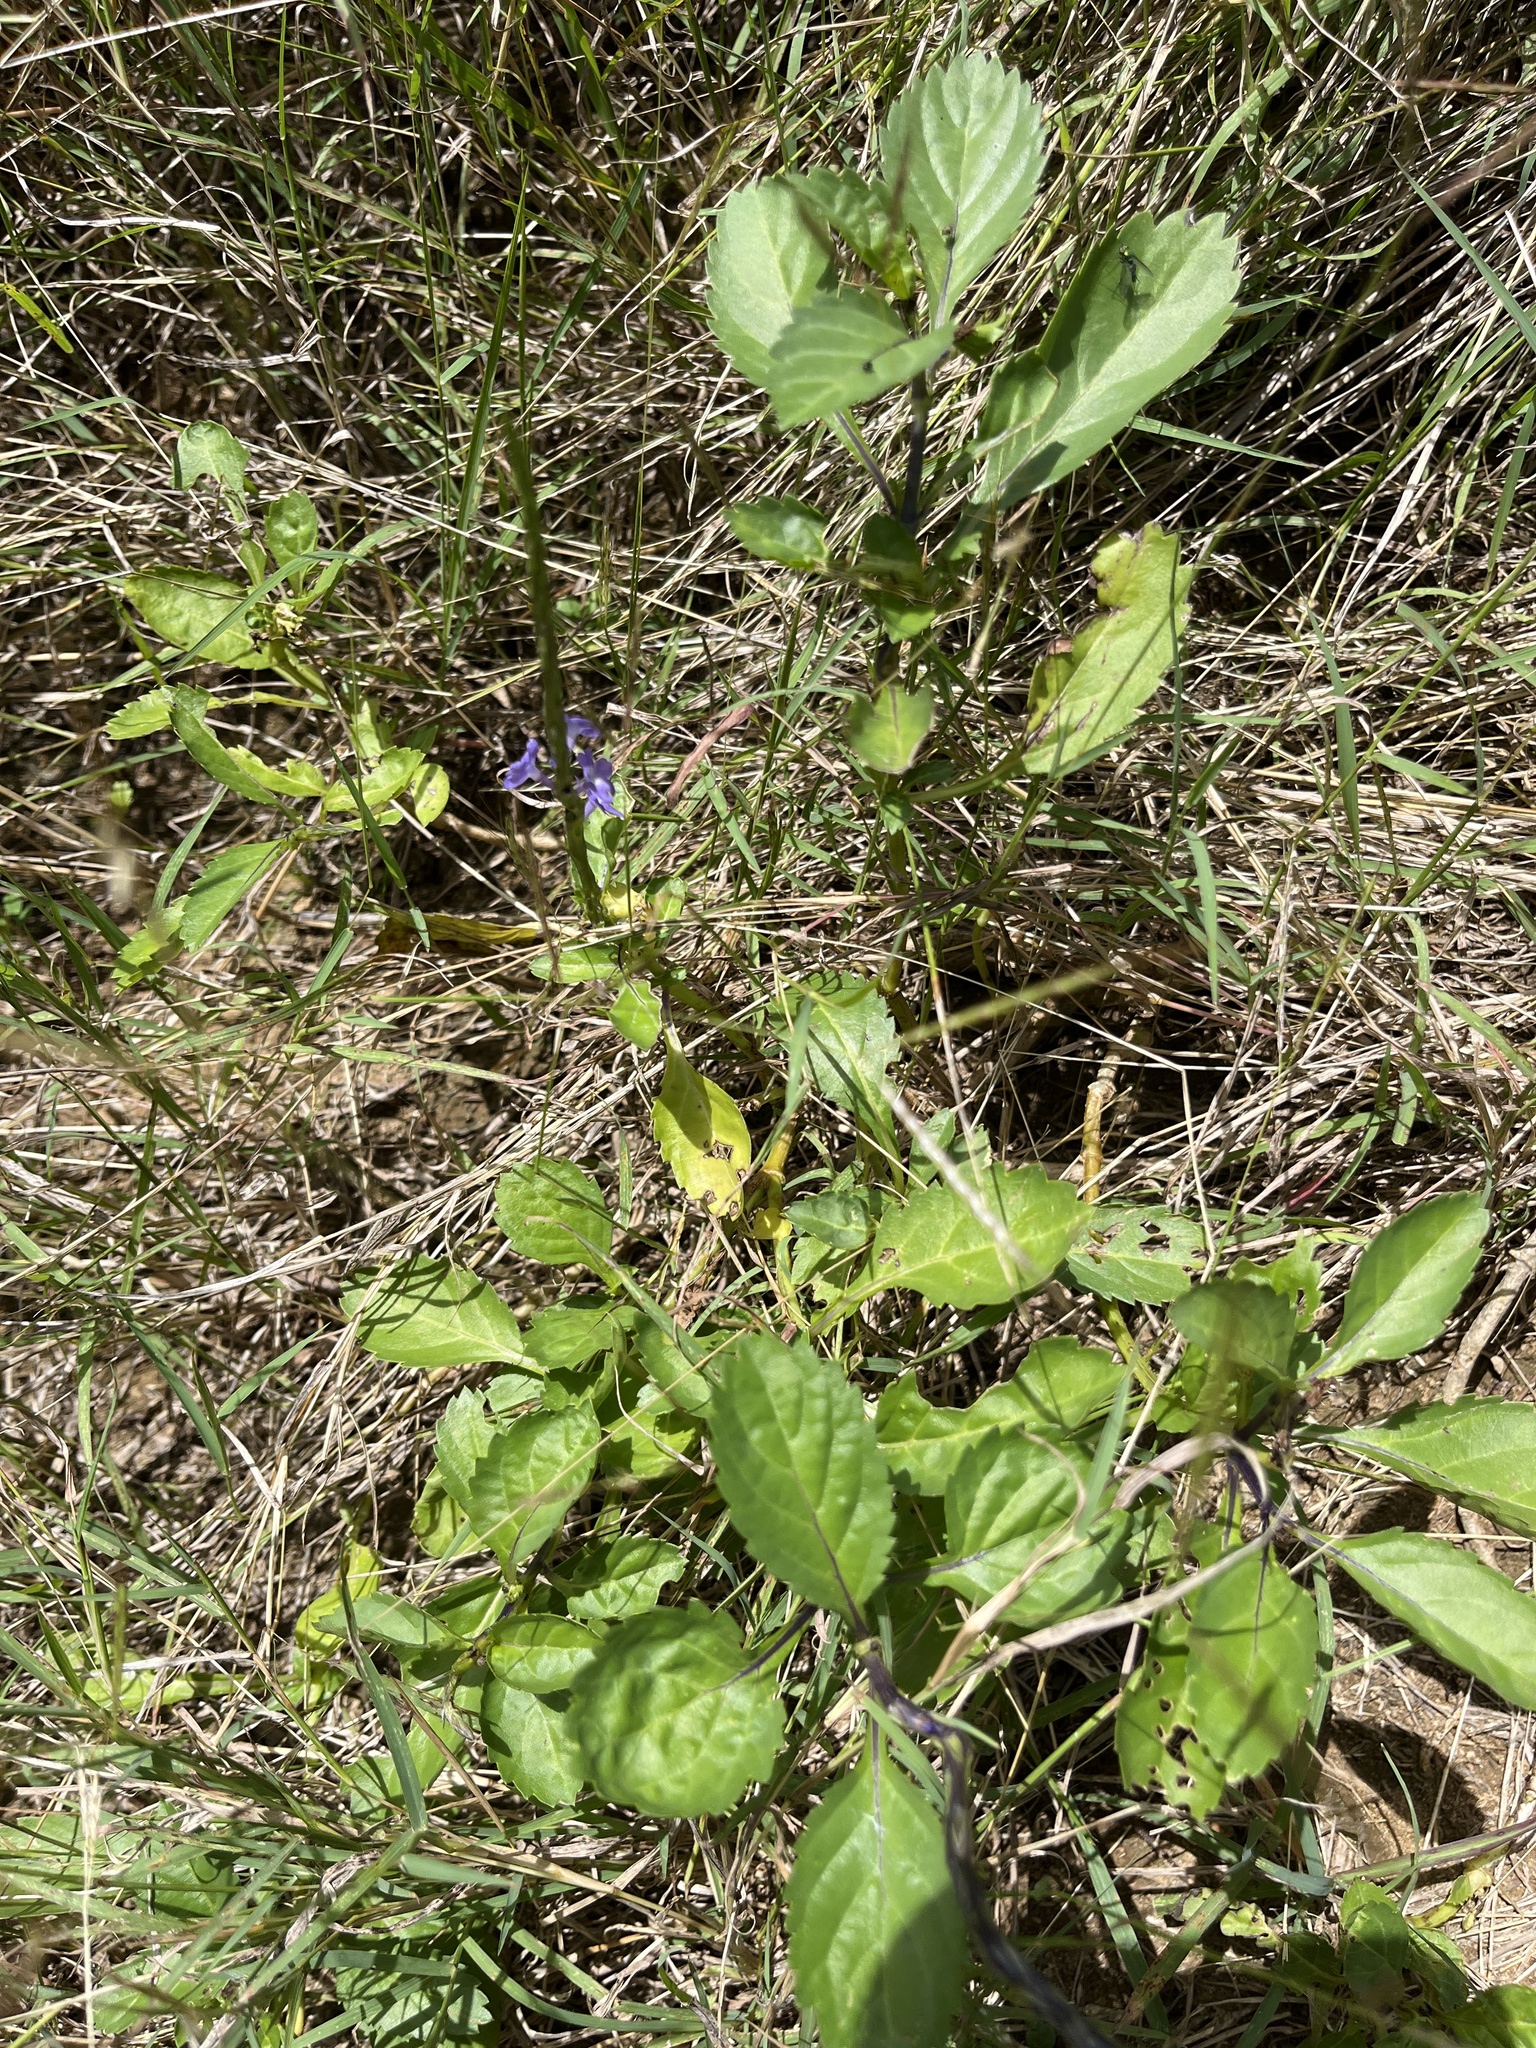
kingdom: Plantae
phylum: Tracheophyta
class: Magnoliopsida
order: Lamiales
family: Verbenaceae
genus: Stachytarpheta
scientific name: Stachytarpheta jamaicensis
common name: Light-blue snakeweed
